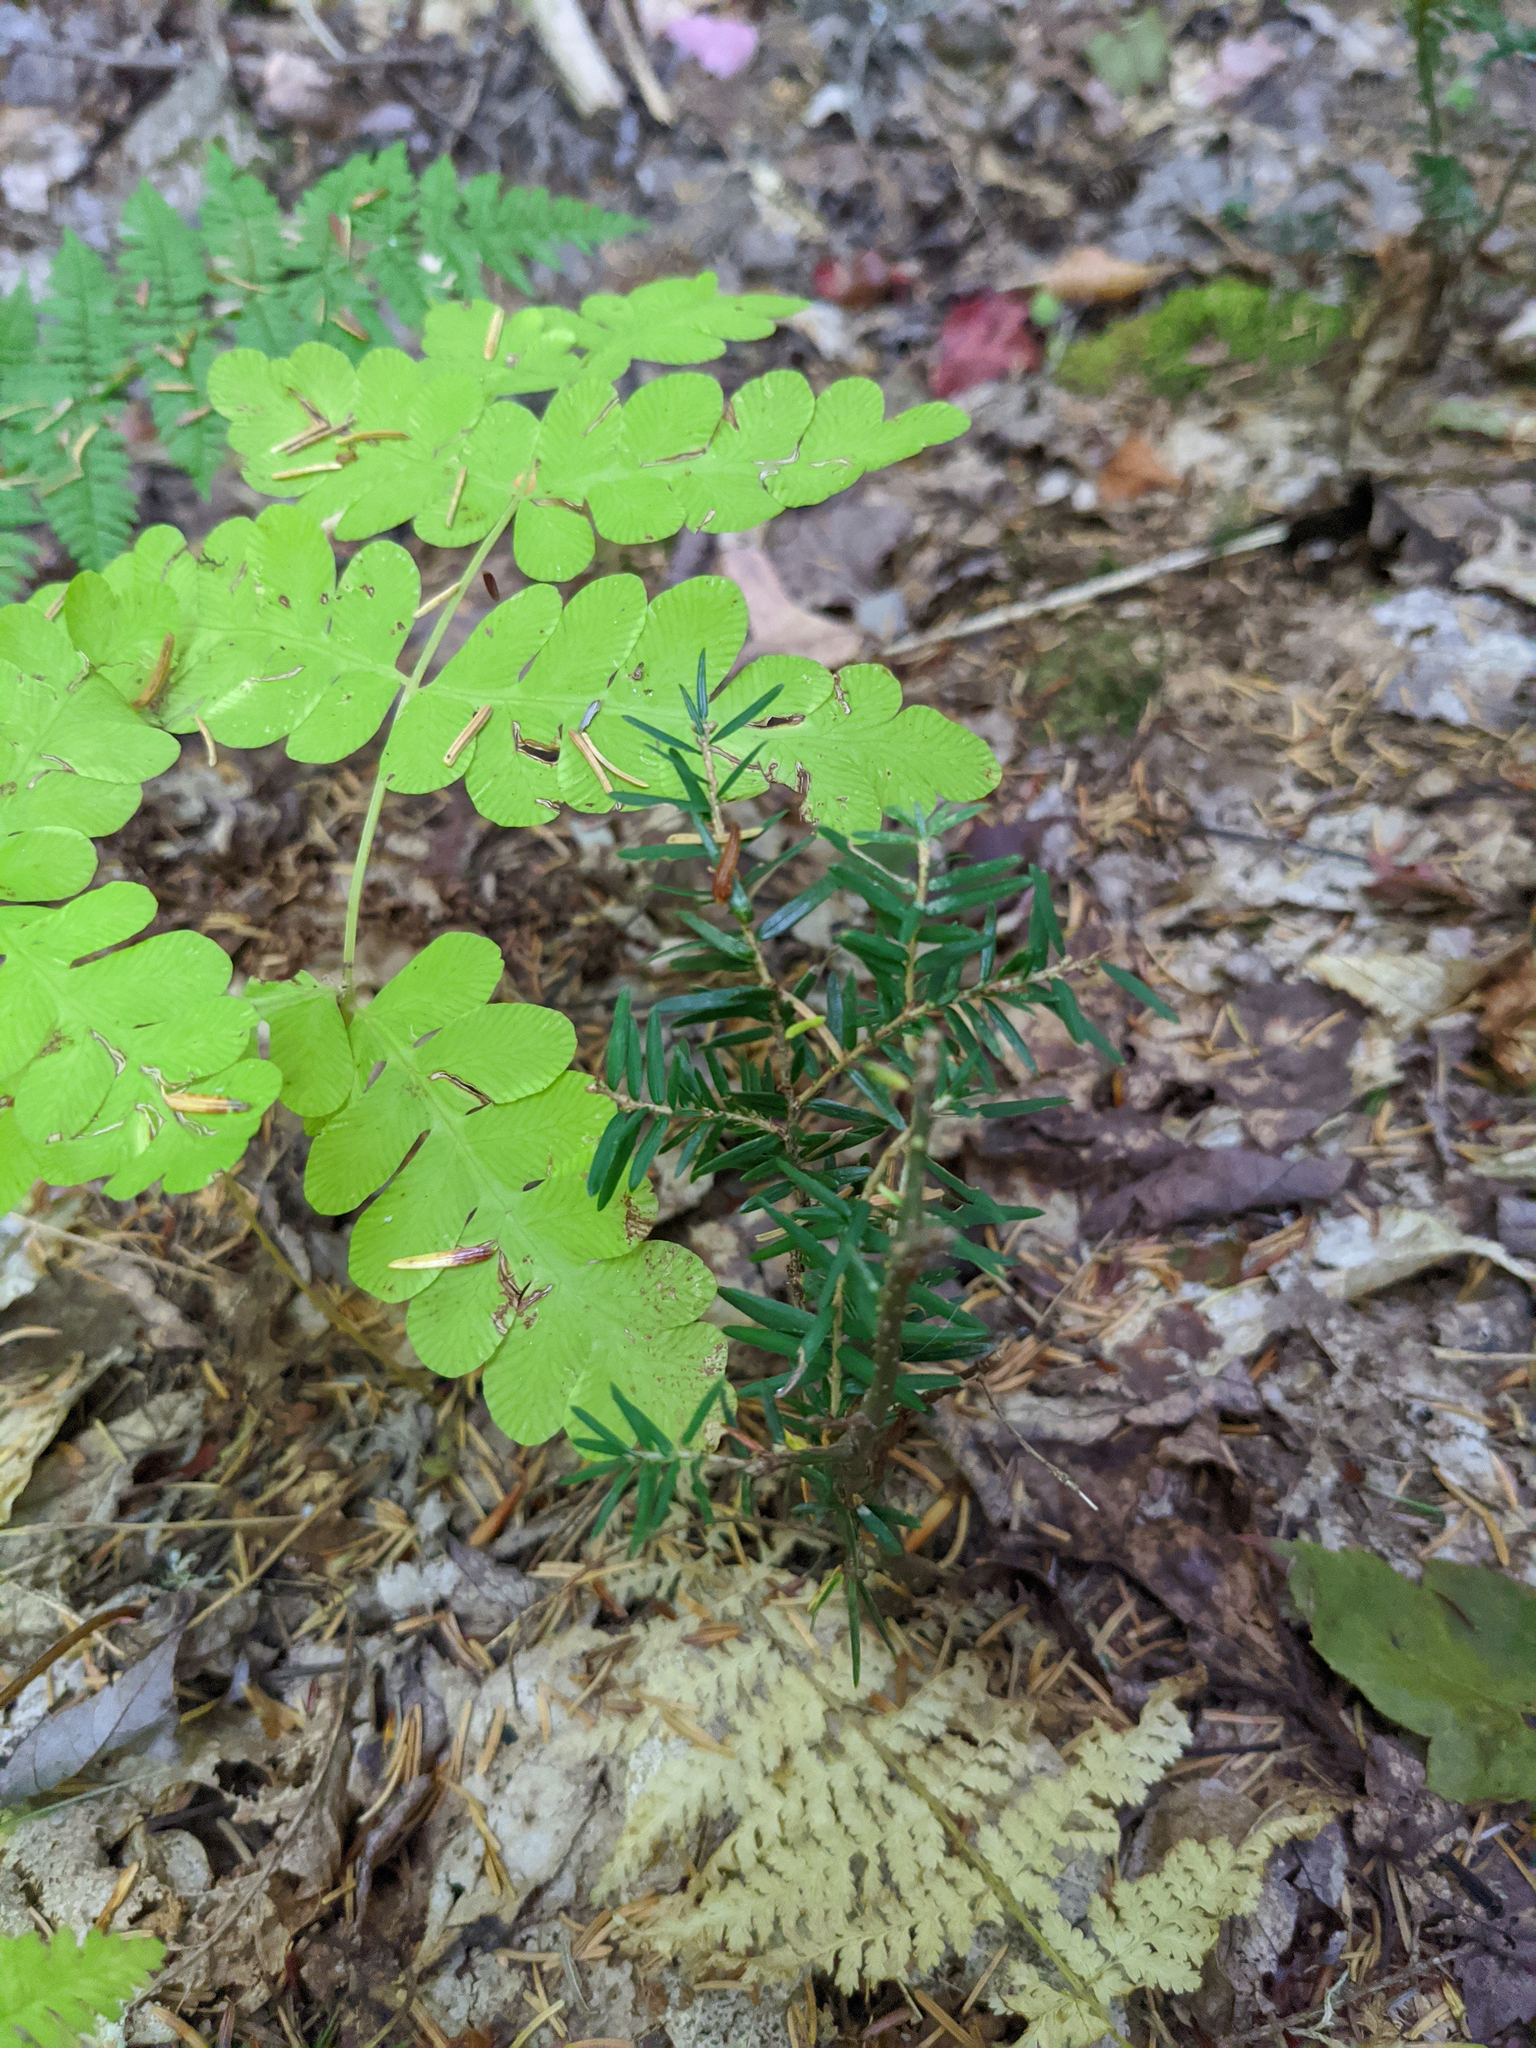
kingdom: Plantae
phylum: Tracheophyta
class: Pinopsida
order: Pinales
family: Pinaceae
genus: Tsuga
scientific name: Tsuga canadensis
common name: Eastern hemlock
